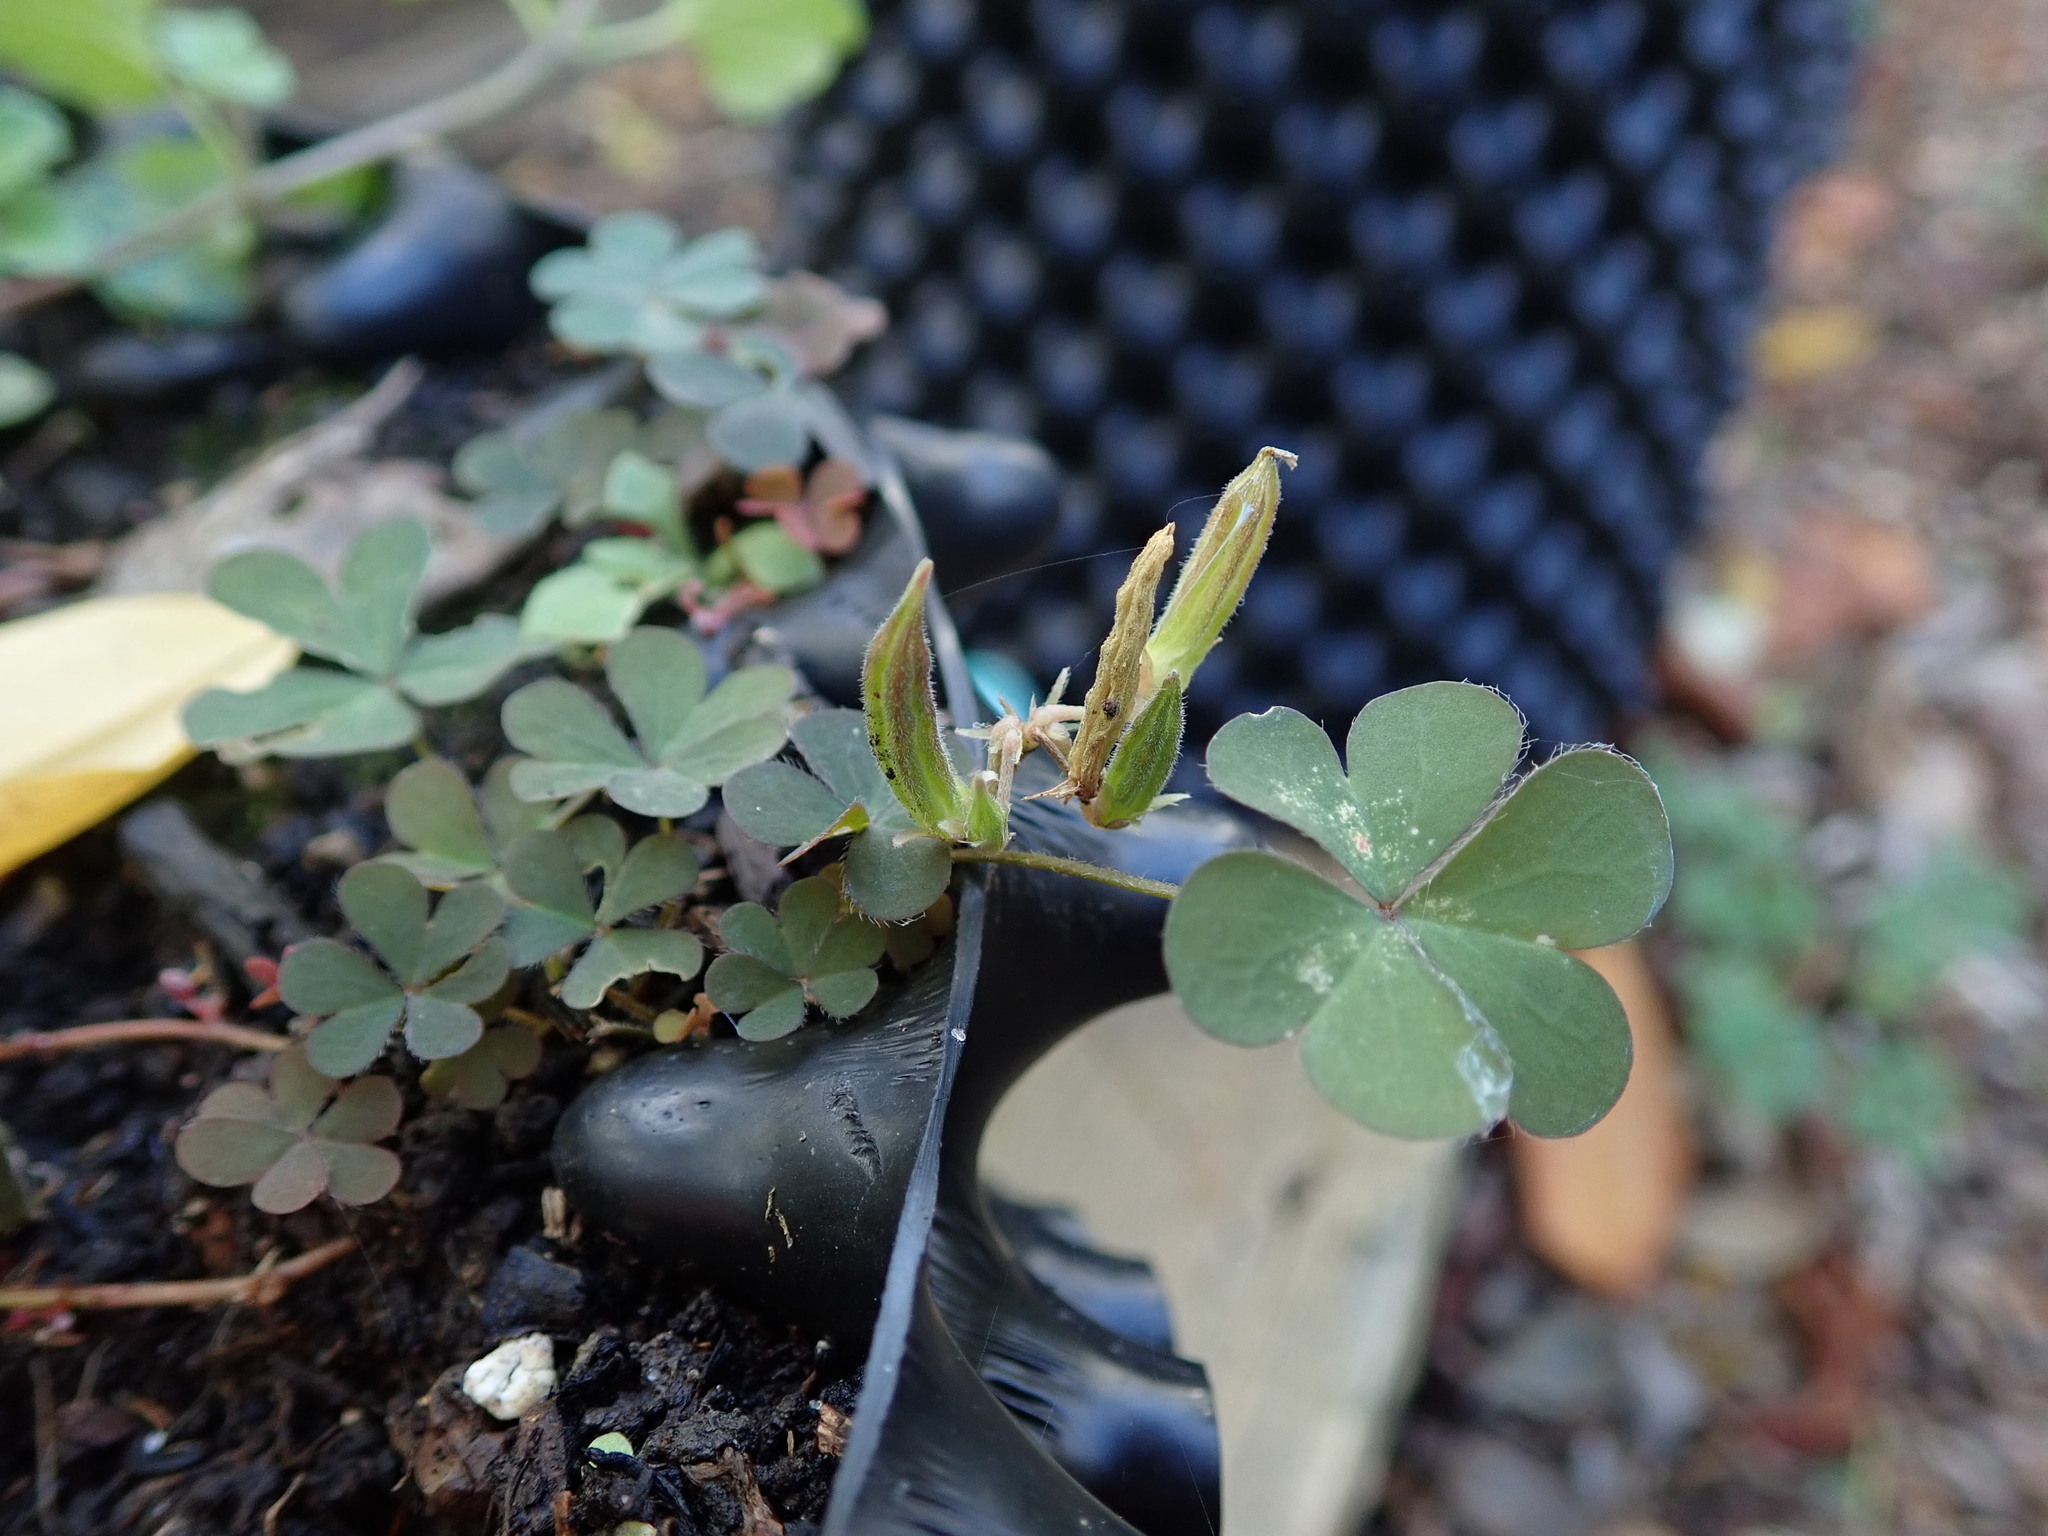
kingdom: Plantae
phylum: Tracheophyta
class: Magnoliopsida
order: Oxalidales
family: Oxalidaceae
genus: Oxalis
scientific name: Oxalis corniculata
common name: Procumbent yellow-sorrel
